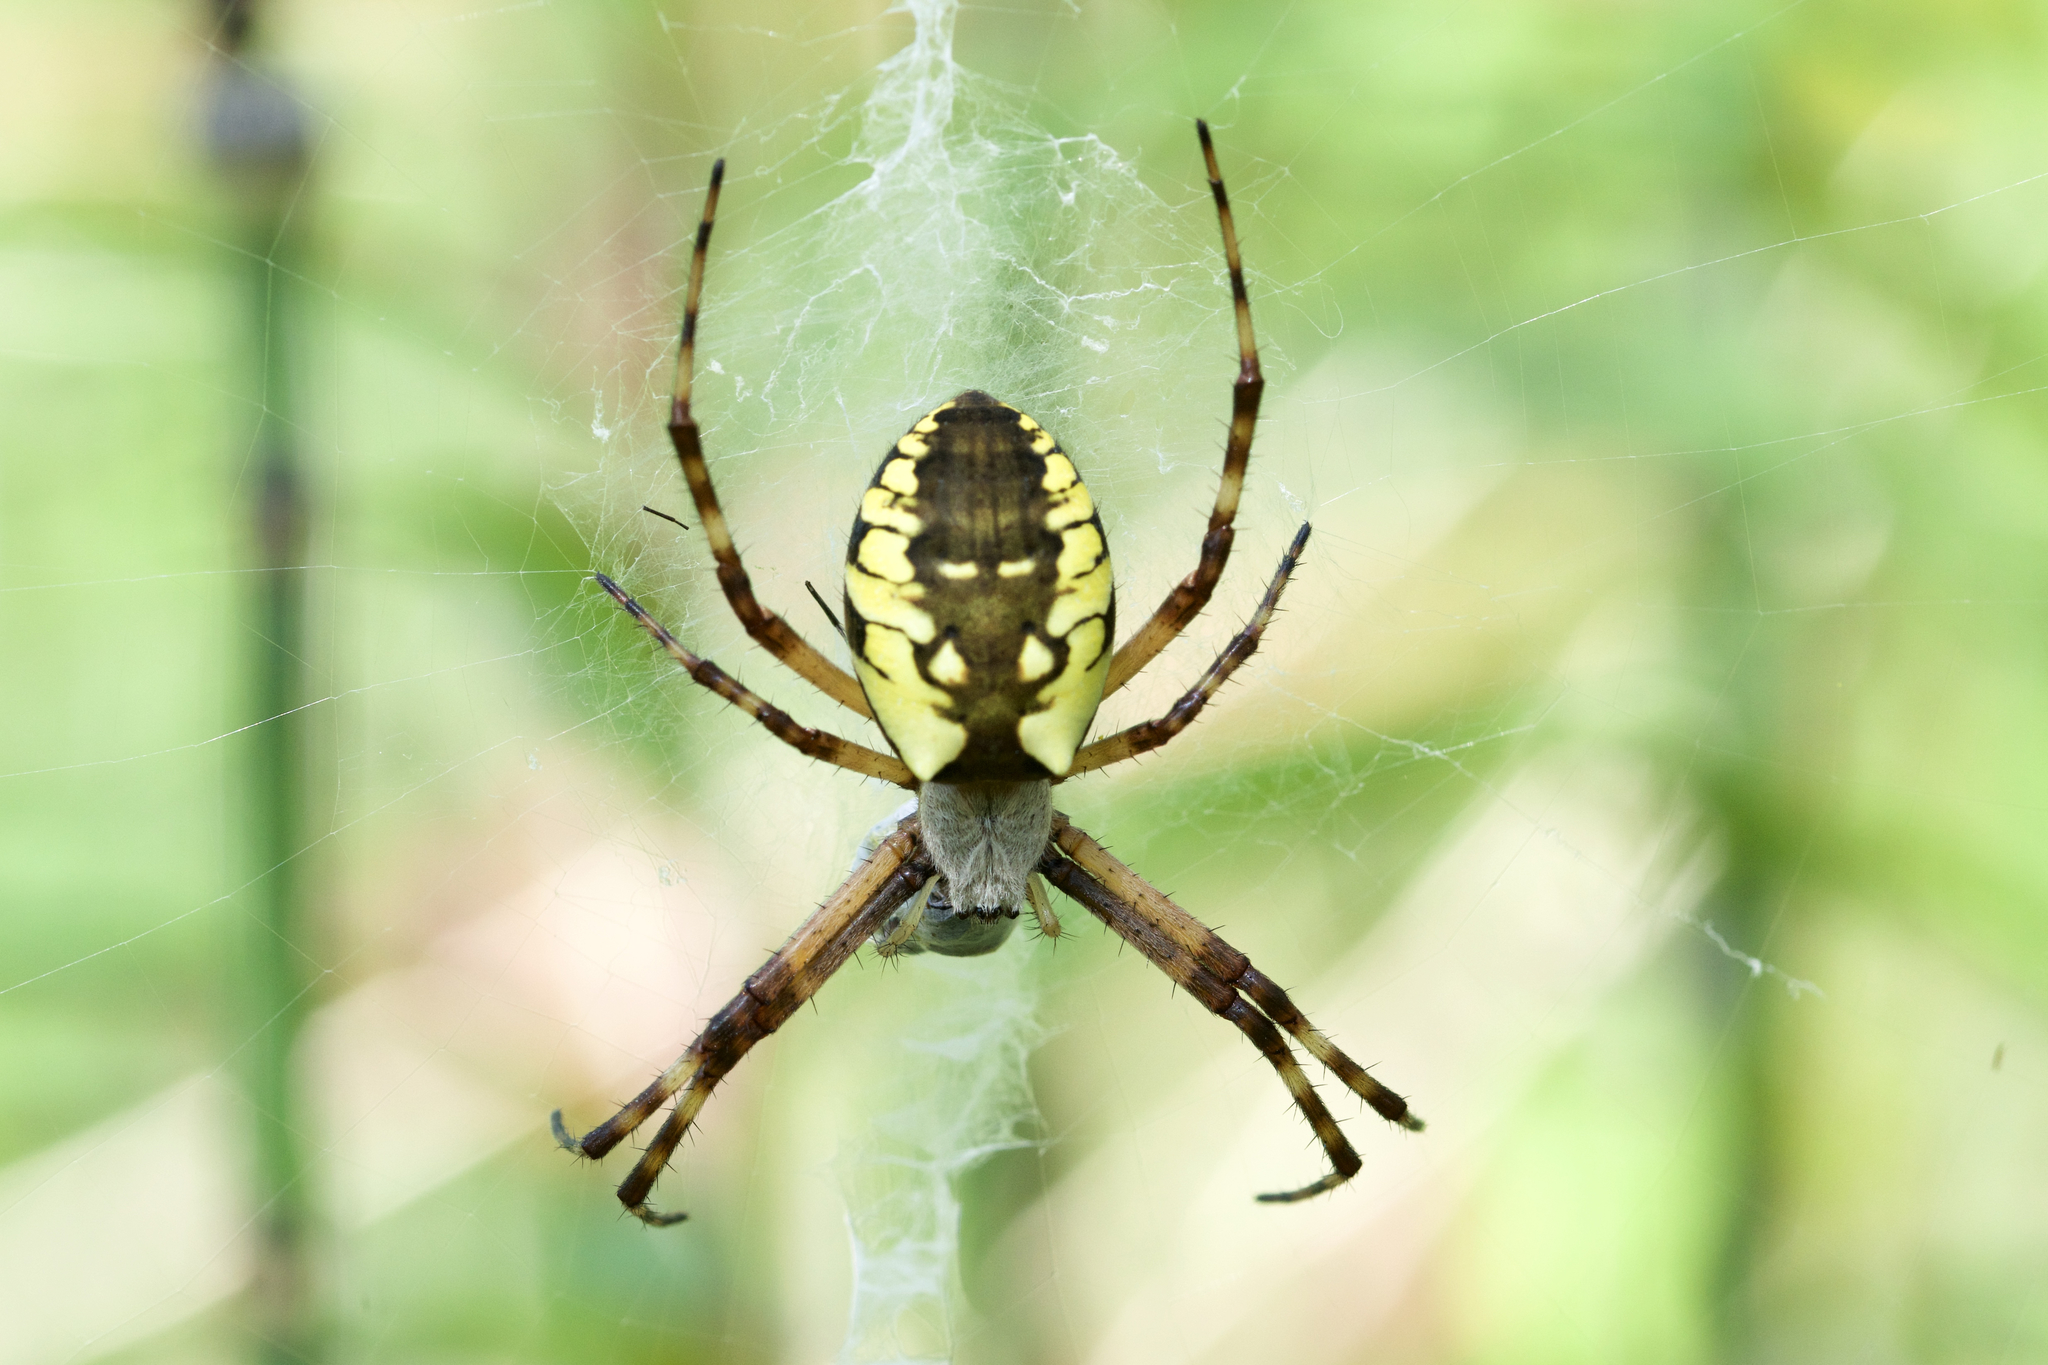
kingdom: Animalia
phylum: Arthropoda
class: Arachnida
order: Araneae
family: Araneidae
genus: Argiope
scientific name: Argiope aurantia
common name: Orb weavers
